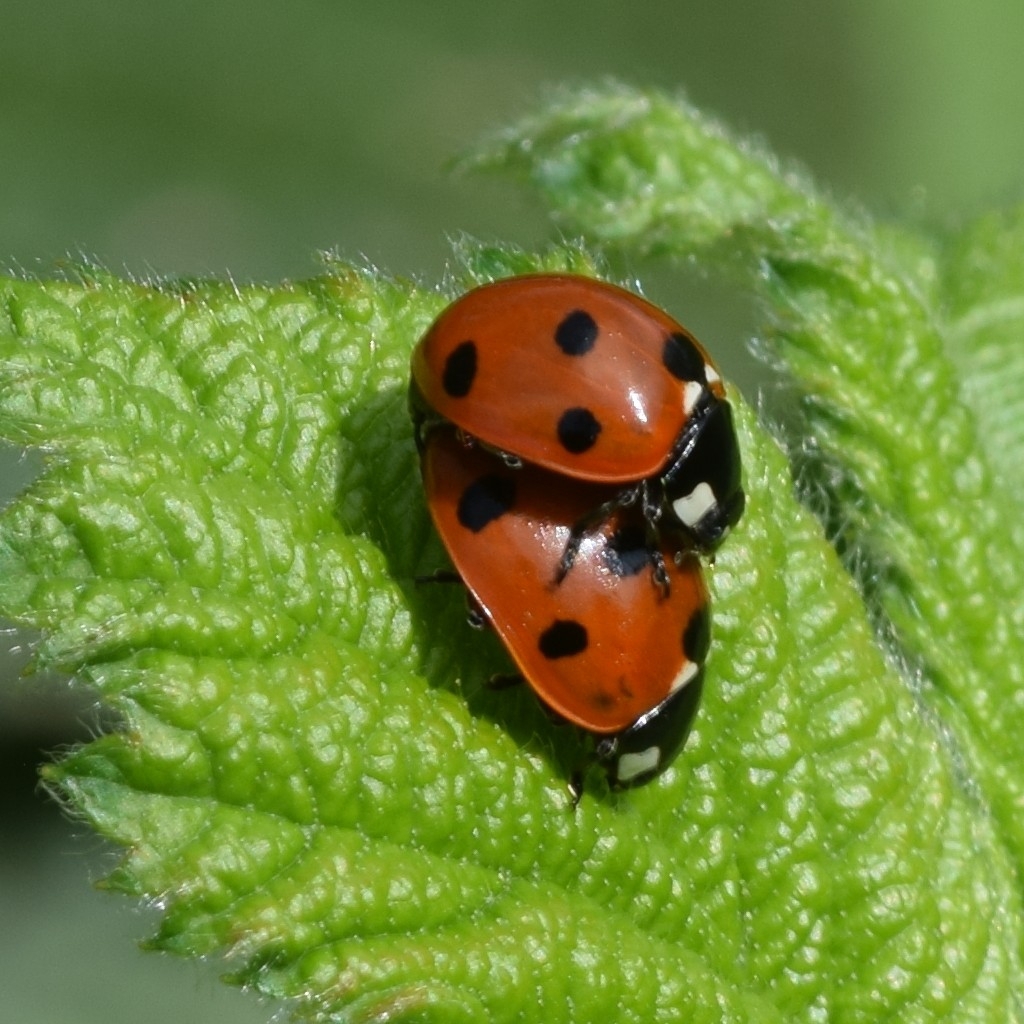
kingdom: Animalia
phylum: Arthropoda
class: Insecta
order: Coleoptera
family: Coccinellidae
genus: Coccinella
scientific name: Coccinella septempunctata
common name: Sevenspotted lady beetle
